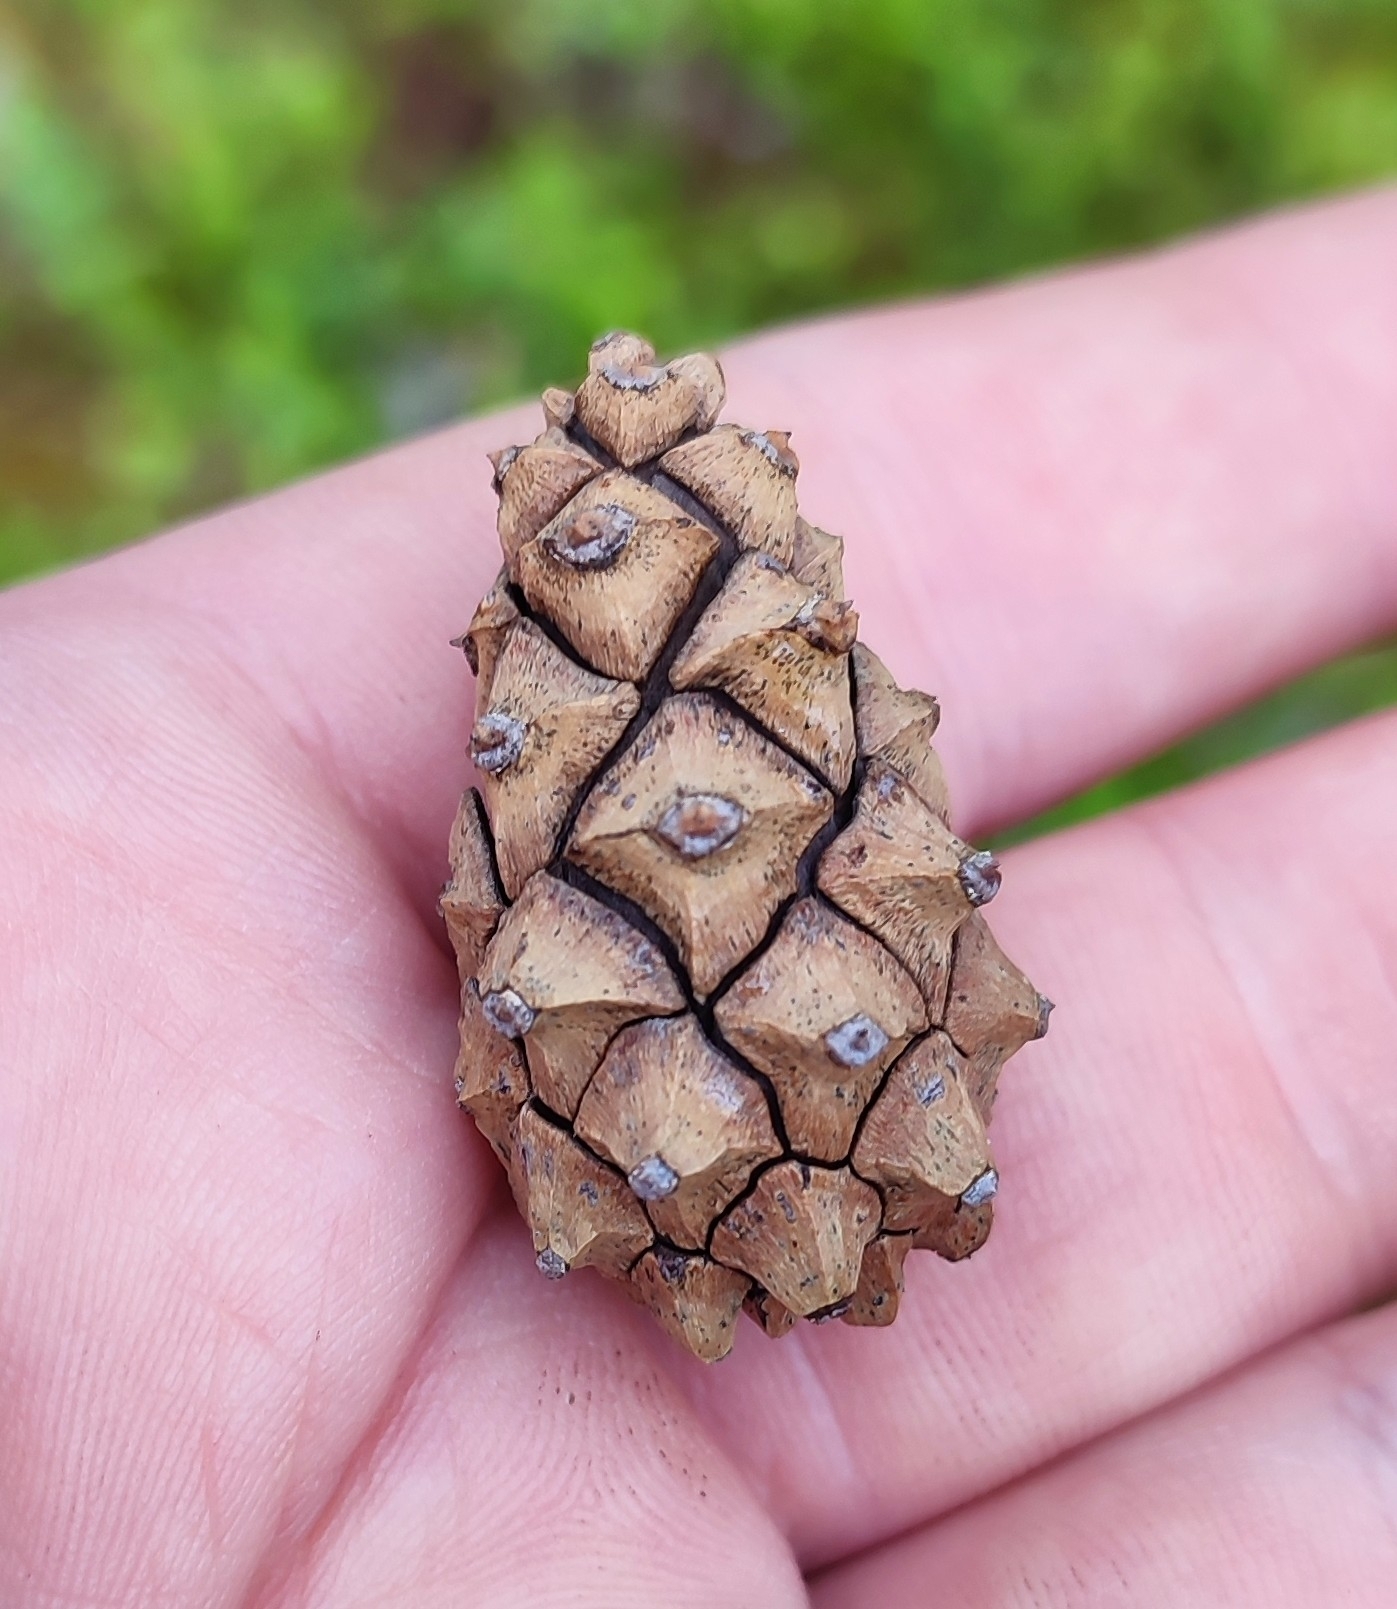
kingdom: Plantae
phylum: Tracheophyta
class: Pinopsida
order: Pinales
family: Pinaceae
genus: Pinus
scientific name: Pinus sylvestris
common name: Scots pine
